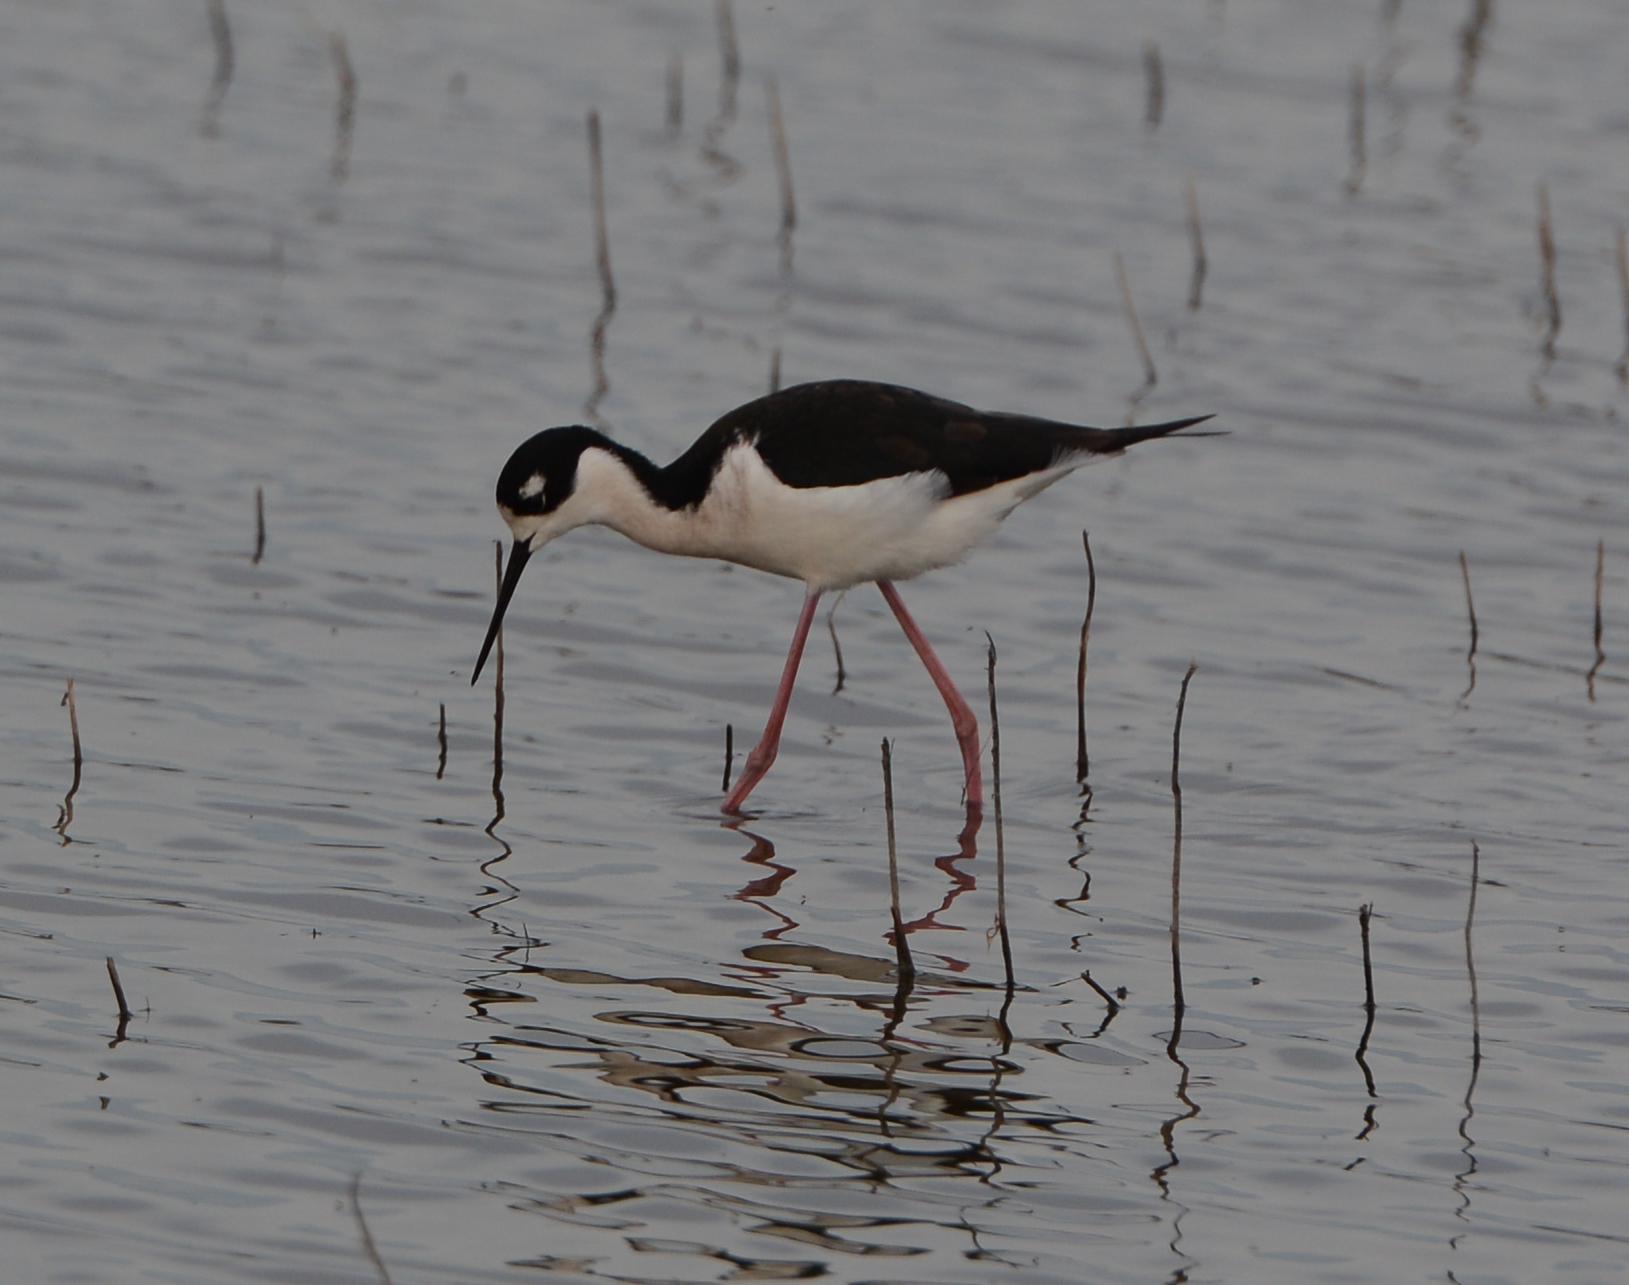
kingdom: Animalia
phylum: Chordata
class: Aves
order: Charadriiformes
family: Recurvirostridae
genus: Himantopus
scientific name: Himantopus mexicanus
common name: Black-necked stilt
